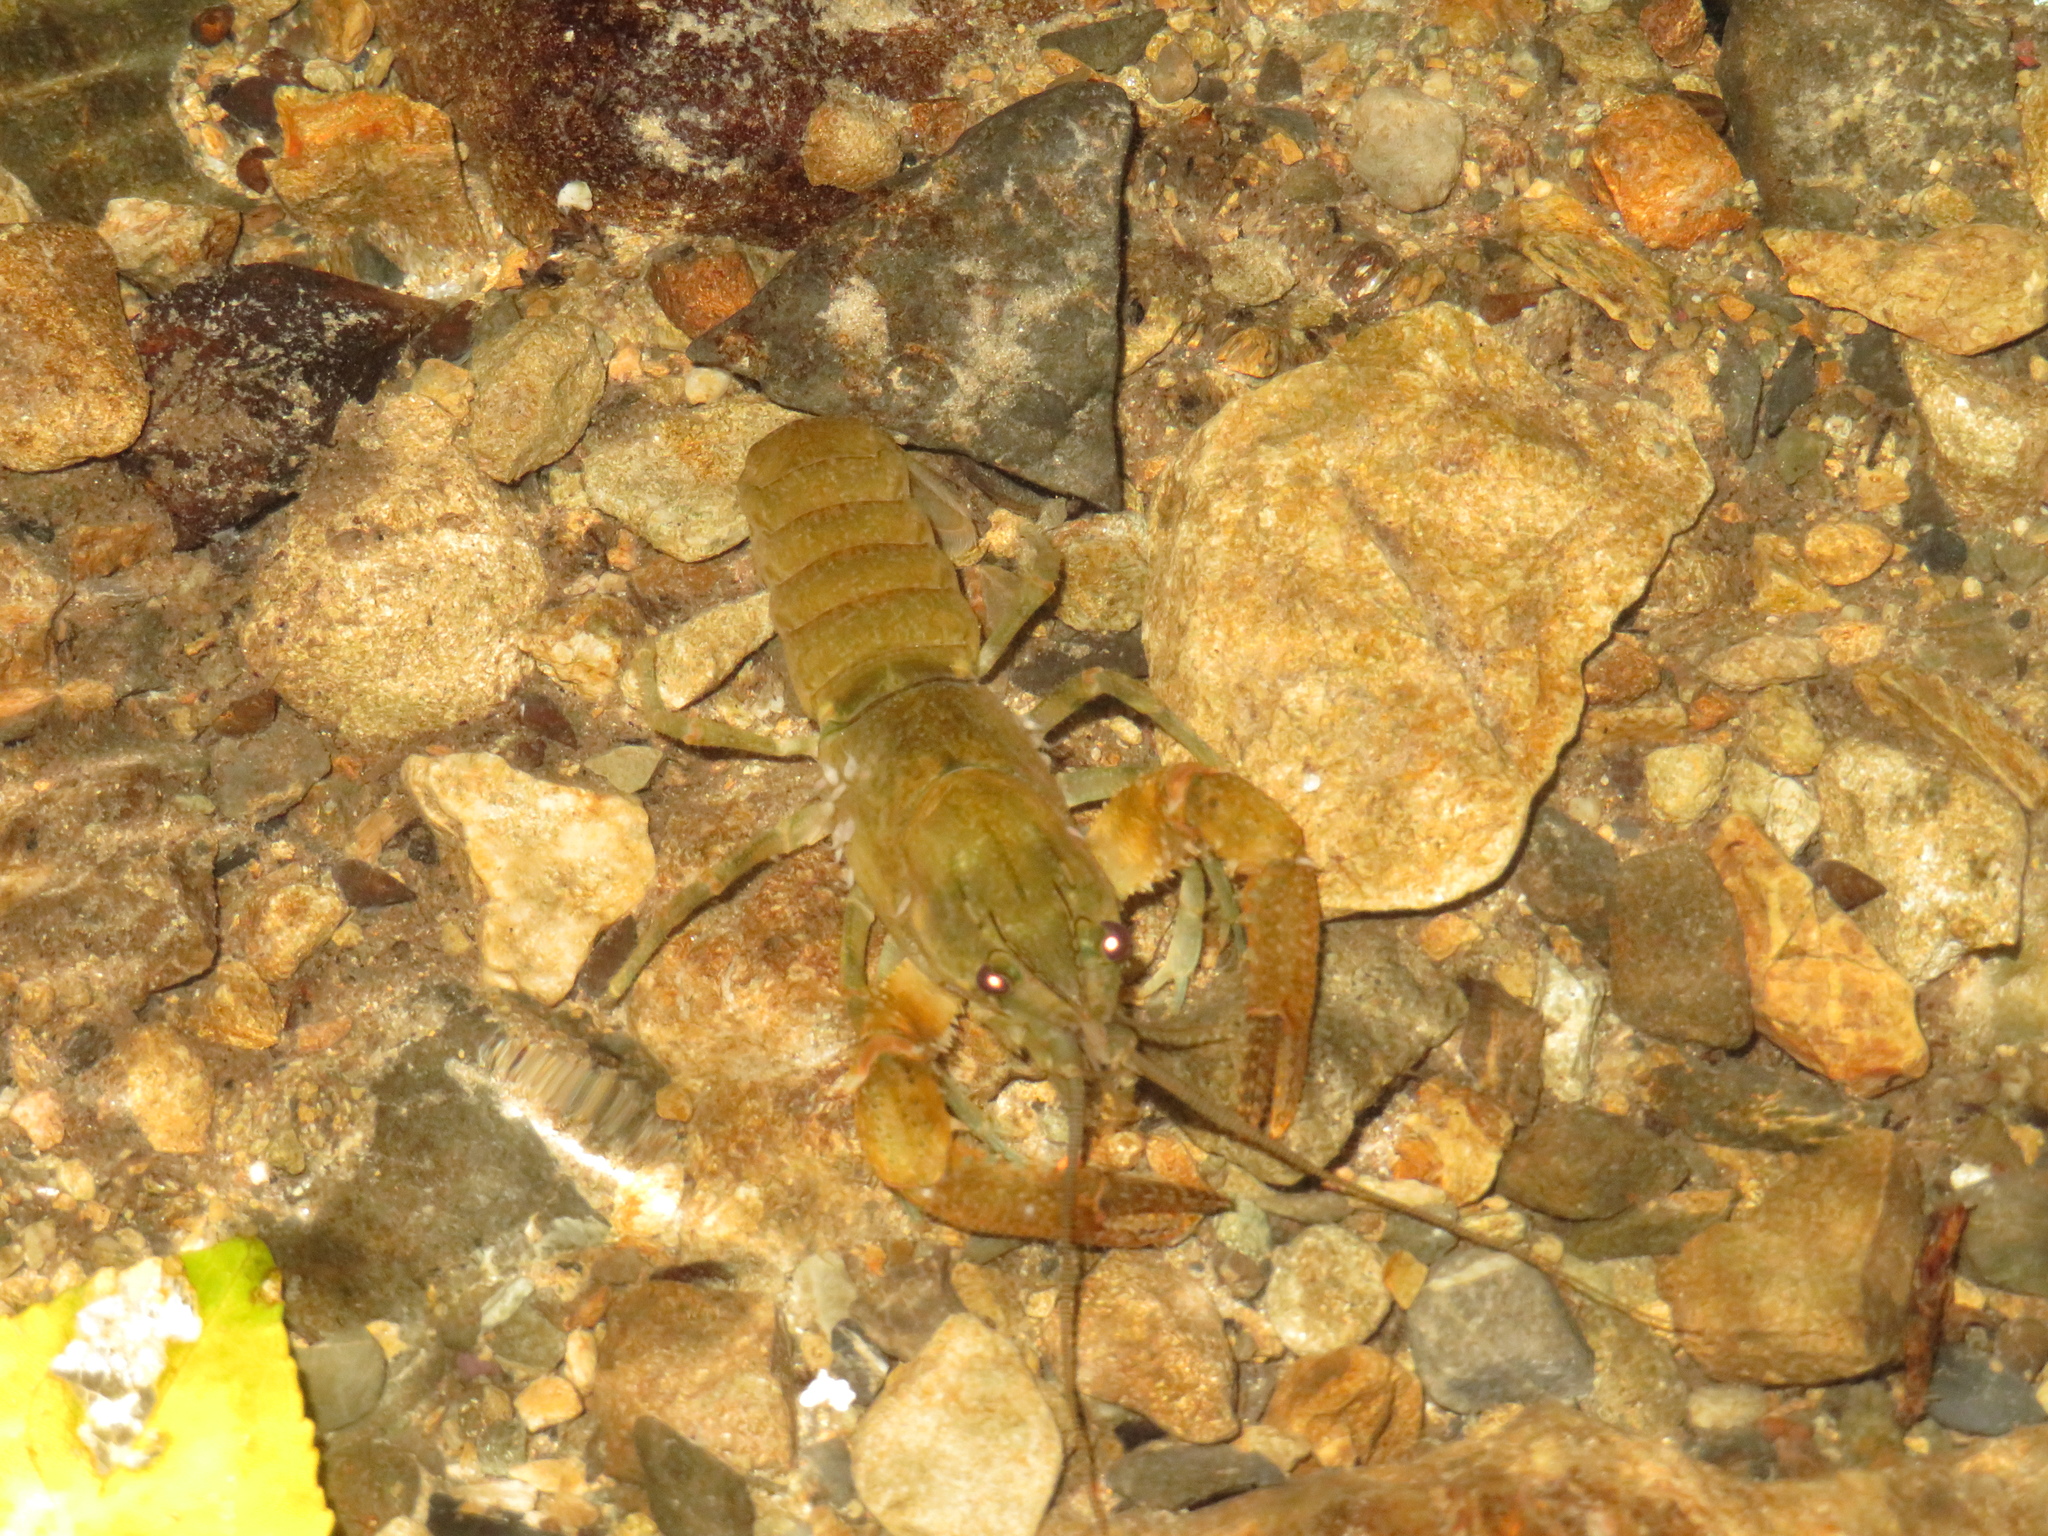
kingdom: Animalia
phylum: Arthropoda
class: Malacostraca
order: Decapoda
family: Parastacidae
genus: Paranephrops
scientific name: Paranephrops planifrons
